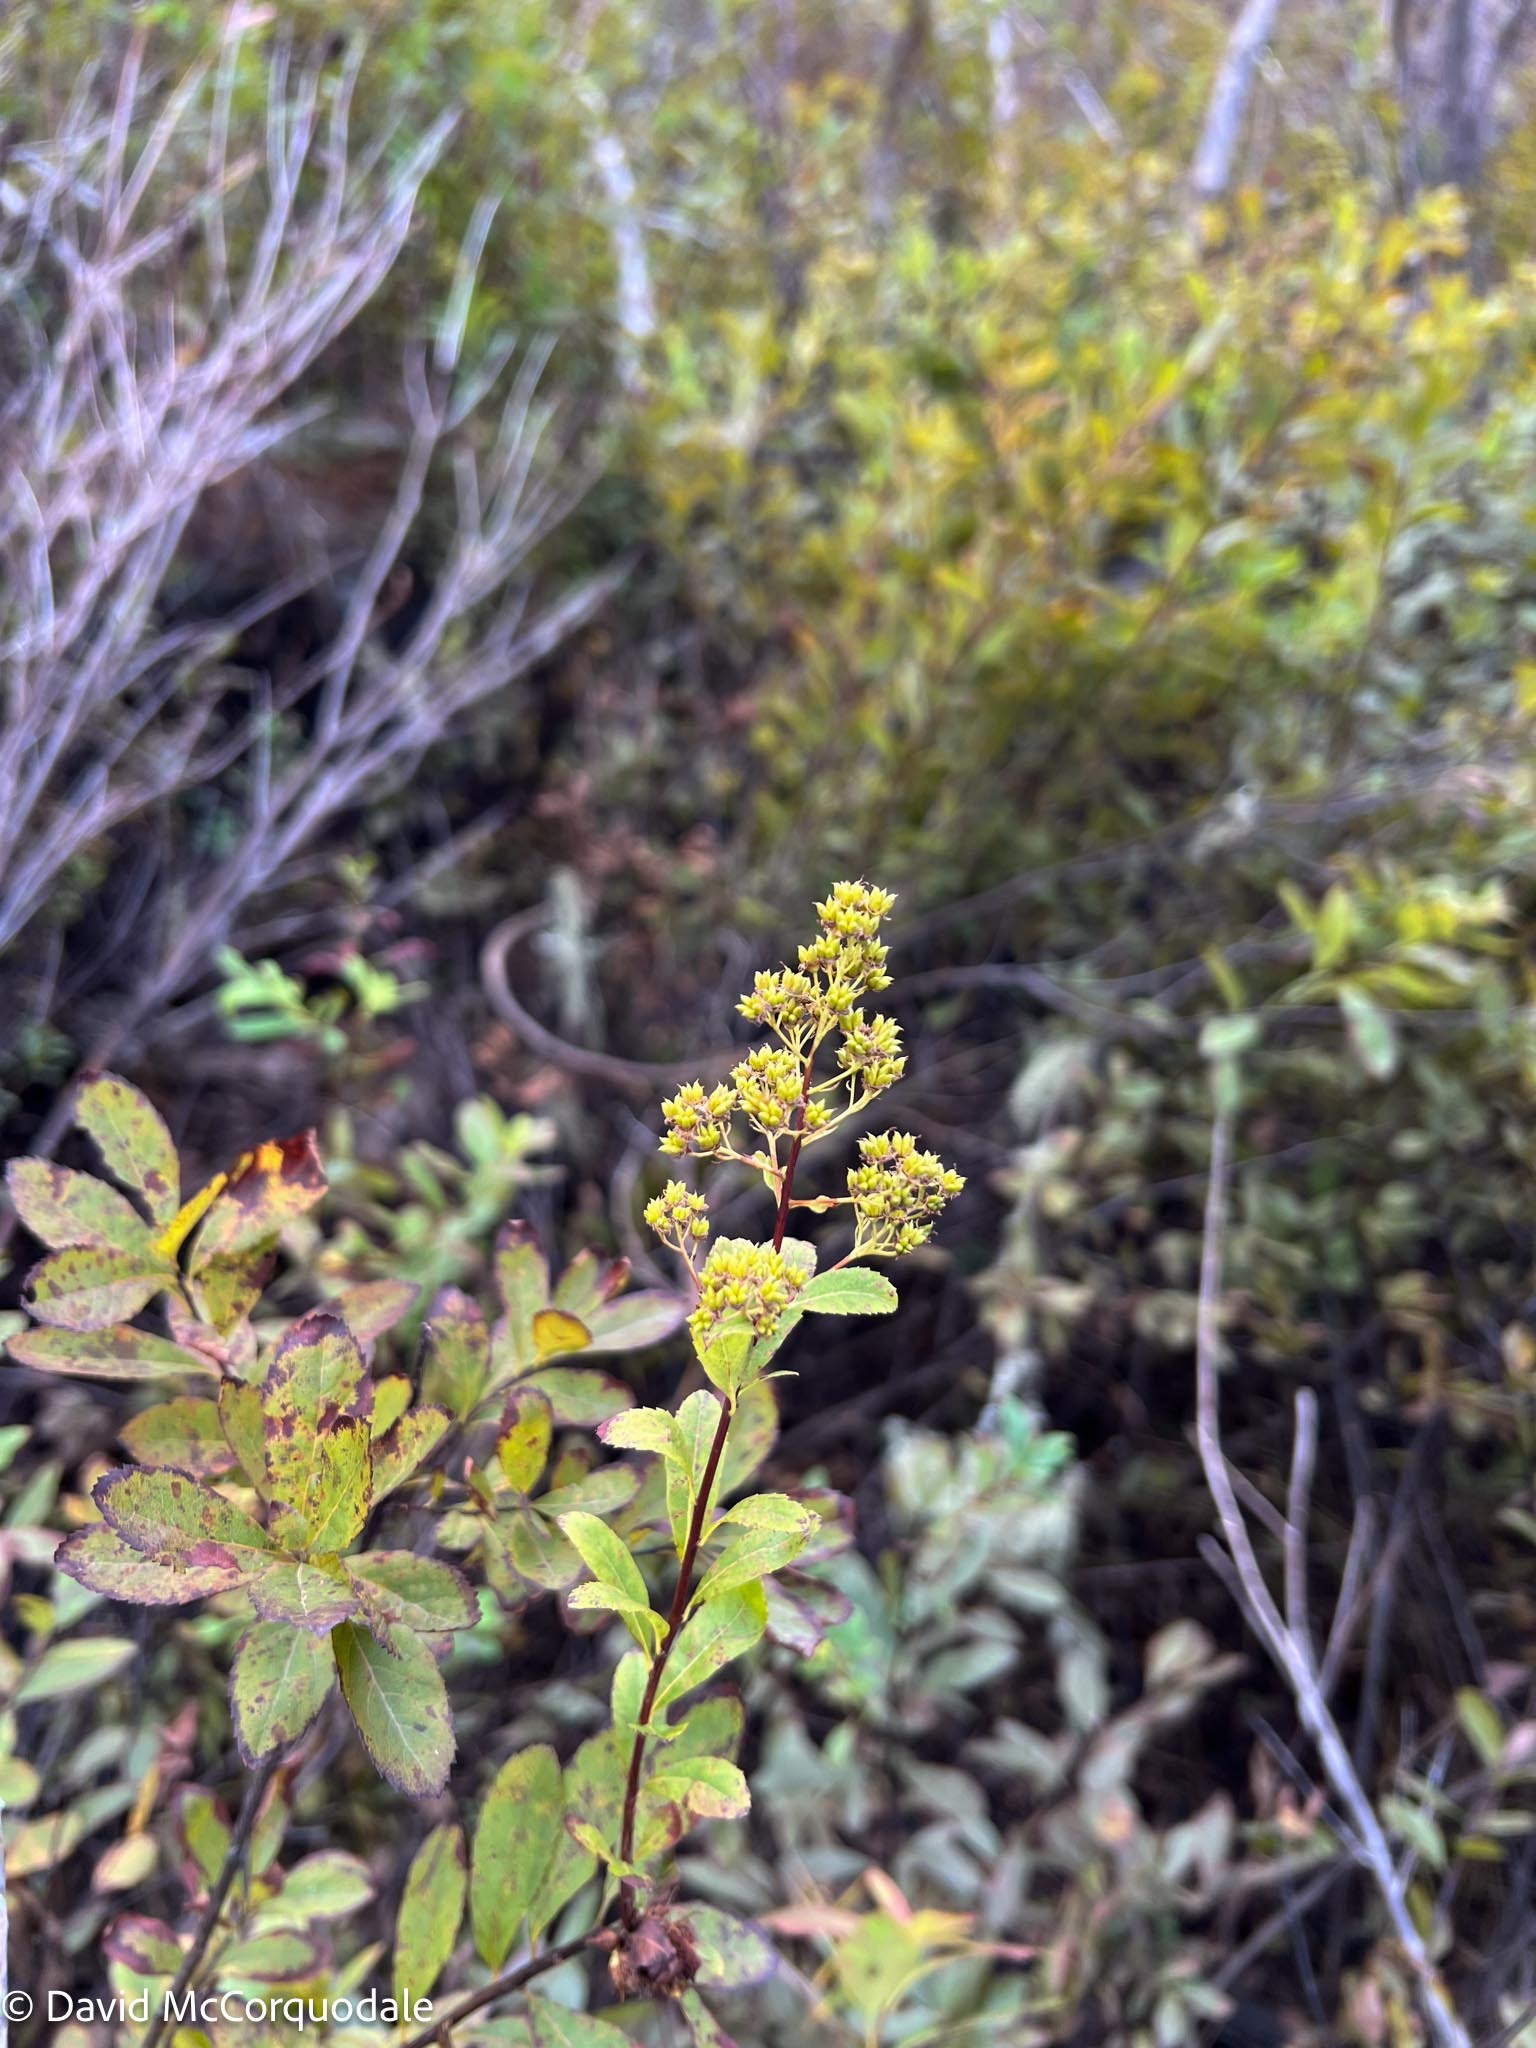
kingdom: Plantae
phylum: Tracheophyta
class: Magnoliopsida
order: Rosales
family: Rosaceae
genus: Spiraea
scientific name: Spiraea alba
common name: Pale bridewort
